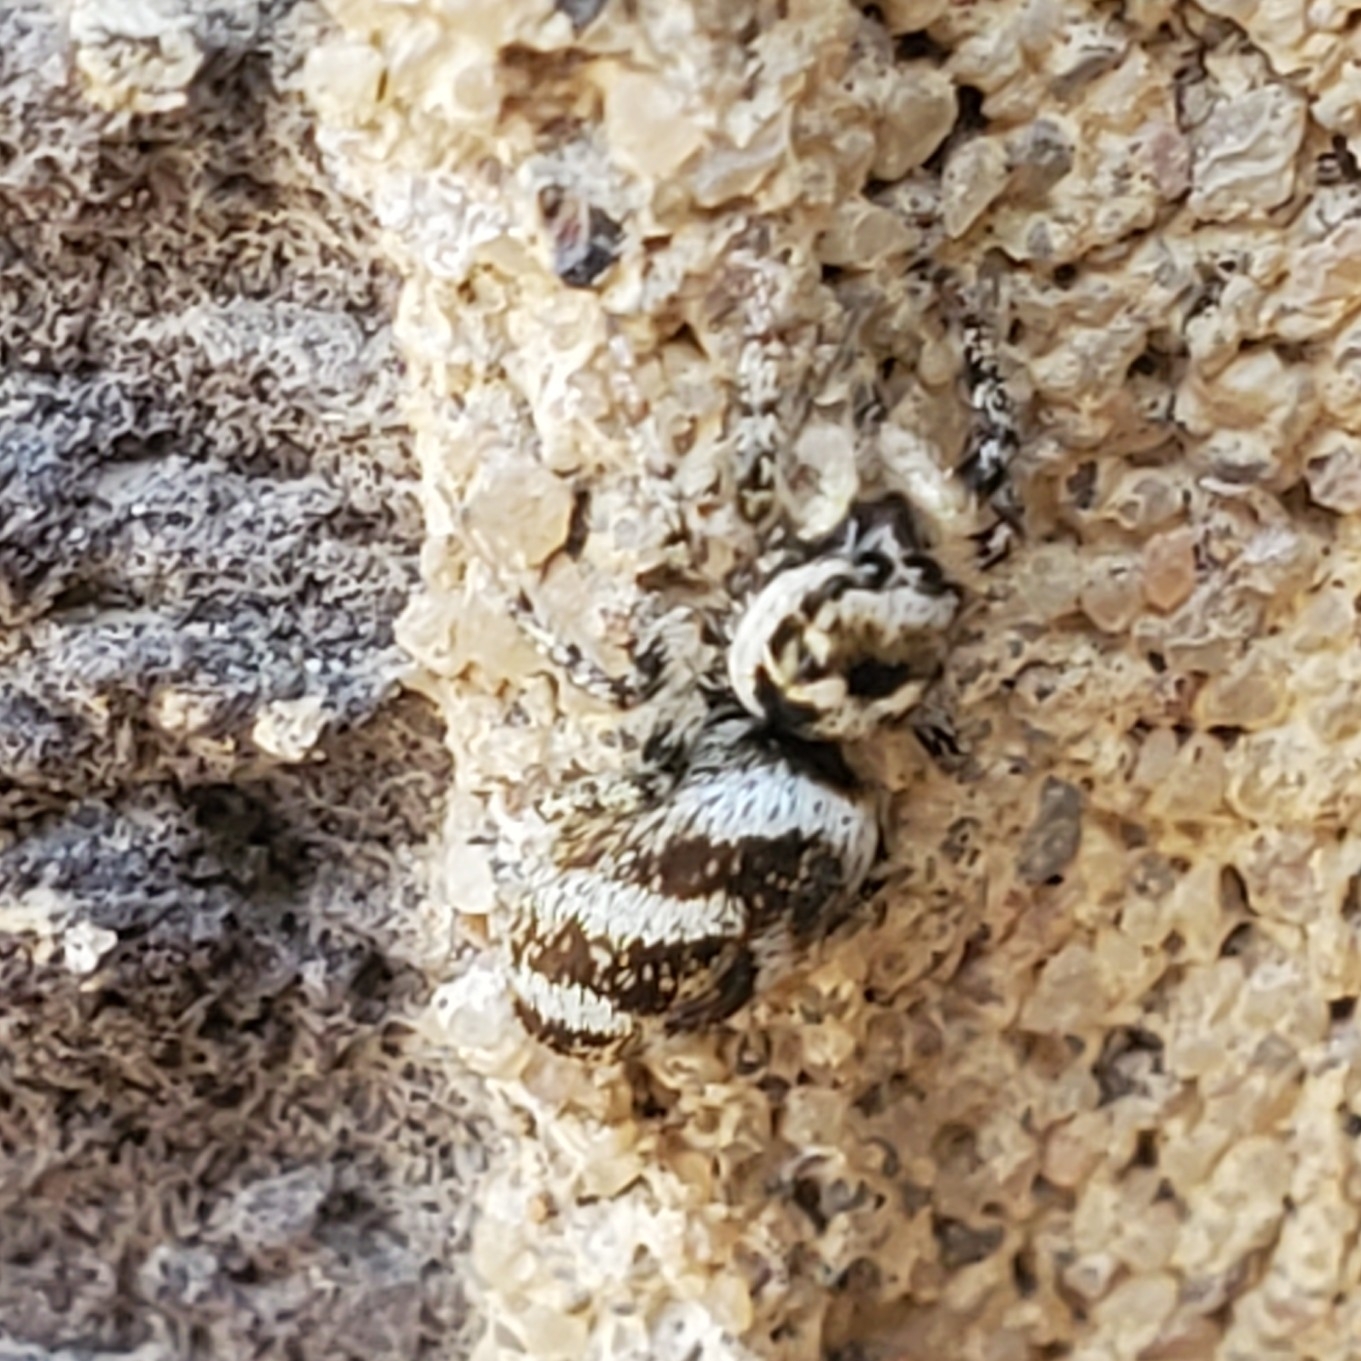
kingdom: Animalia
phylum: Arthropoda
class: Arachnida
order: Araneae
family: Salticidae
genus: Salticus
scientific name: Salticus scenicus
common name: Zebra jumper
